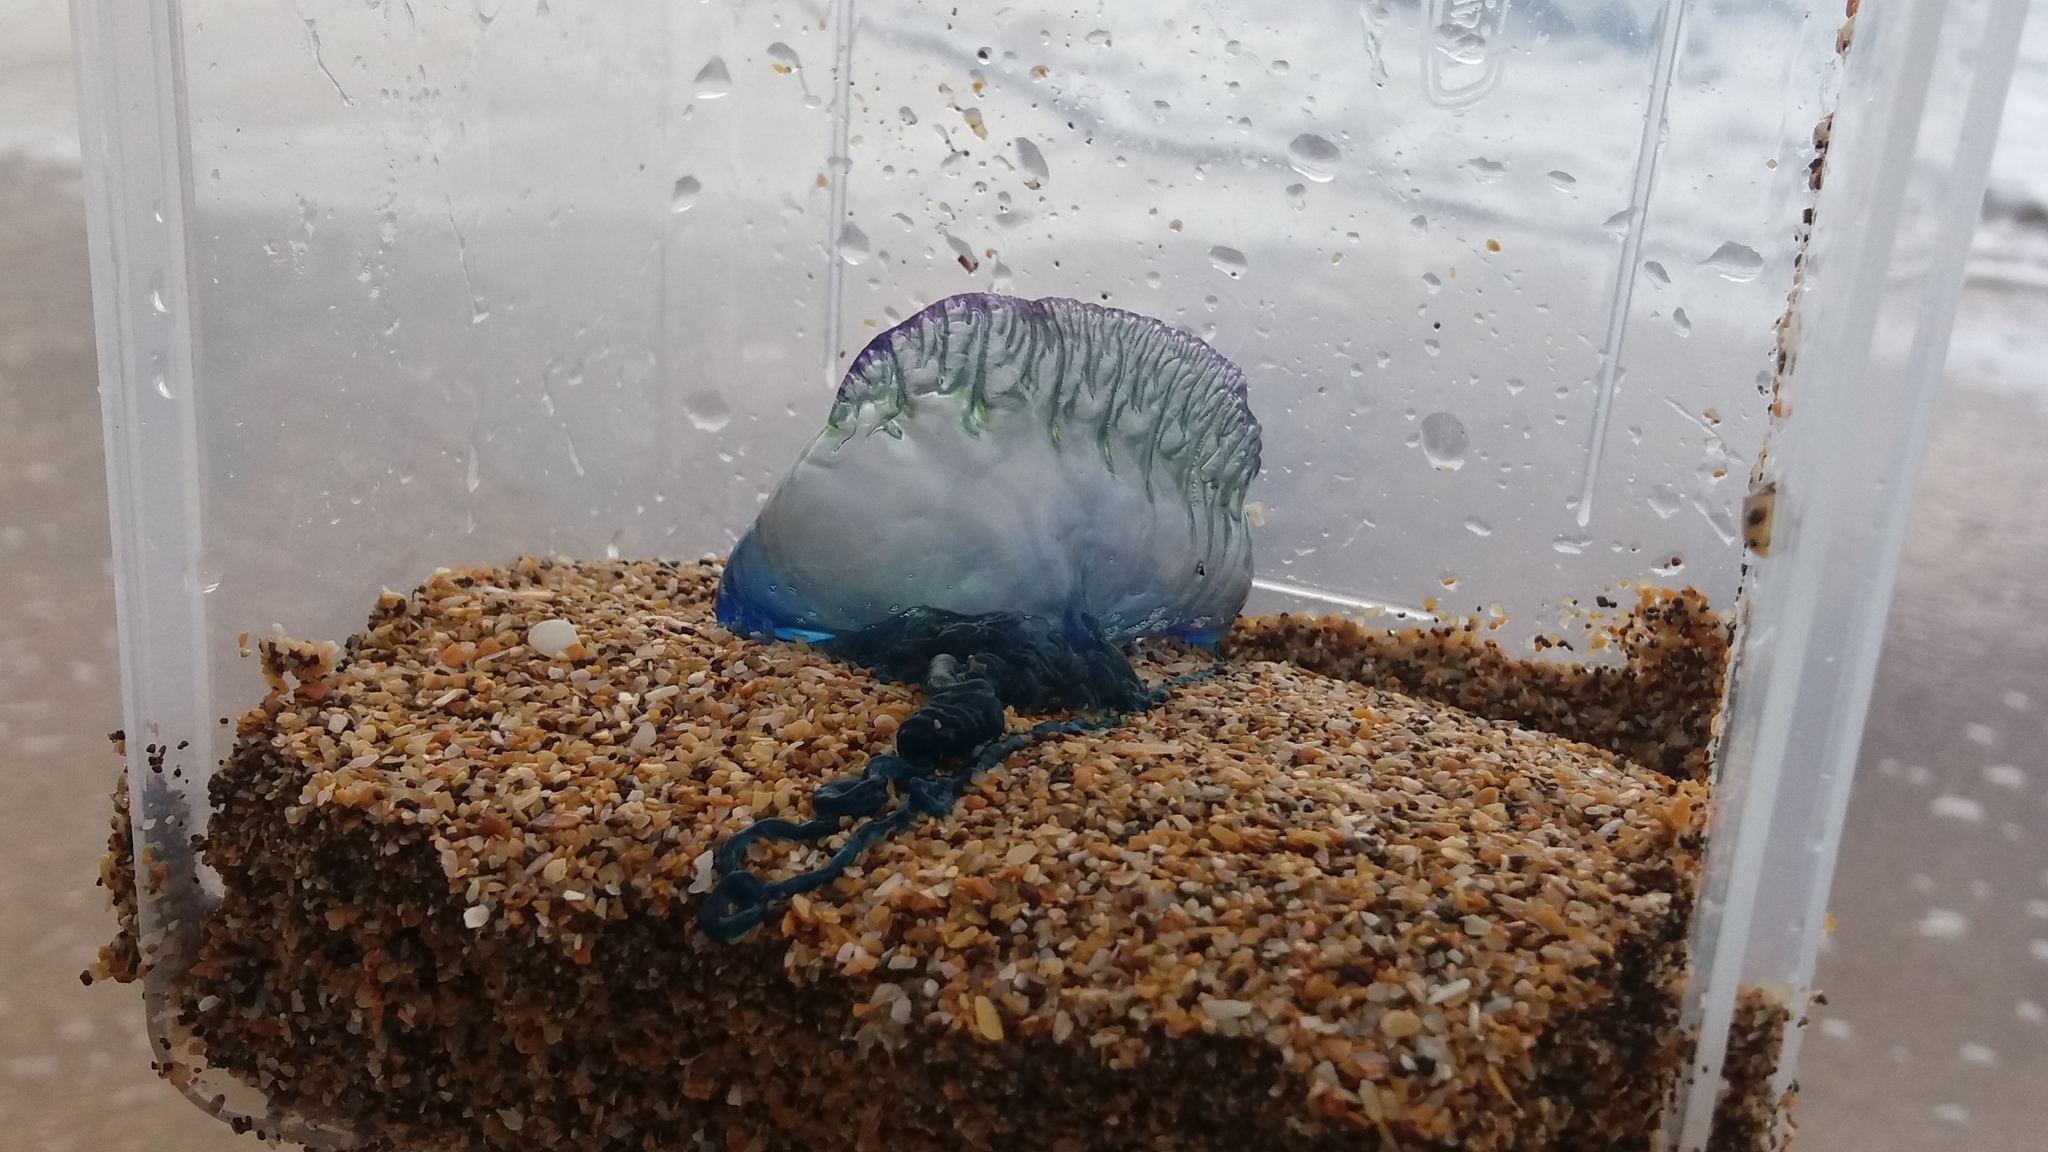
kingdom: Animalia
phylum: Cnidaria
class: Hydrozoa
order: Siphonophorae
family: Physaliidae
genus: Physalia
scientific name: Physalia physalis
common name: Portuguese man-of-war
